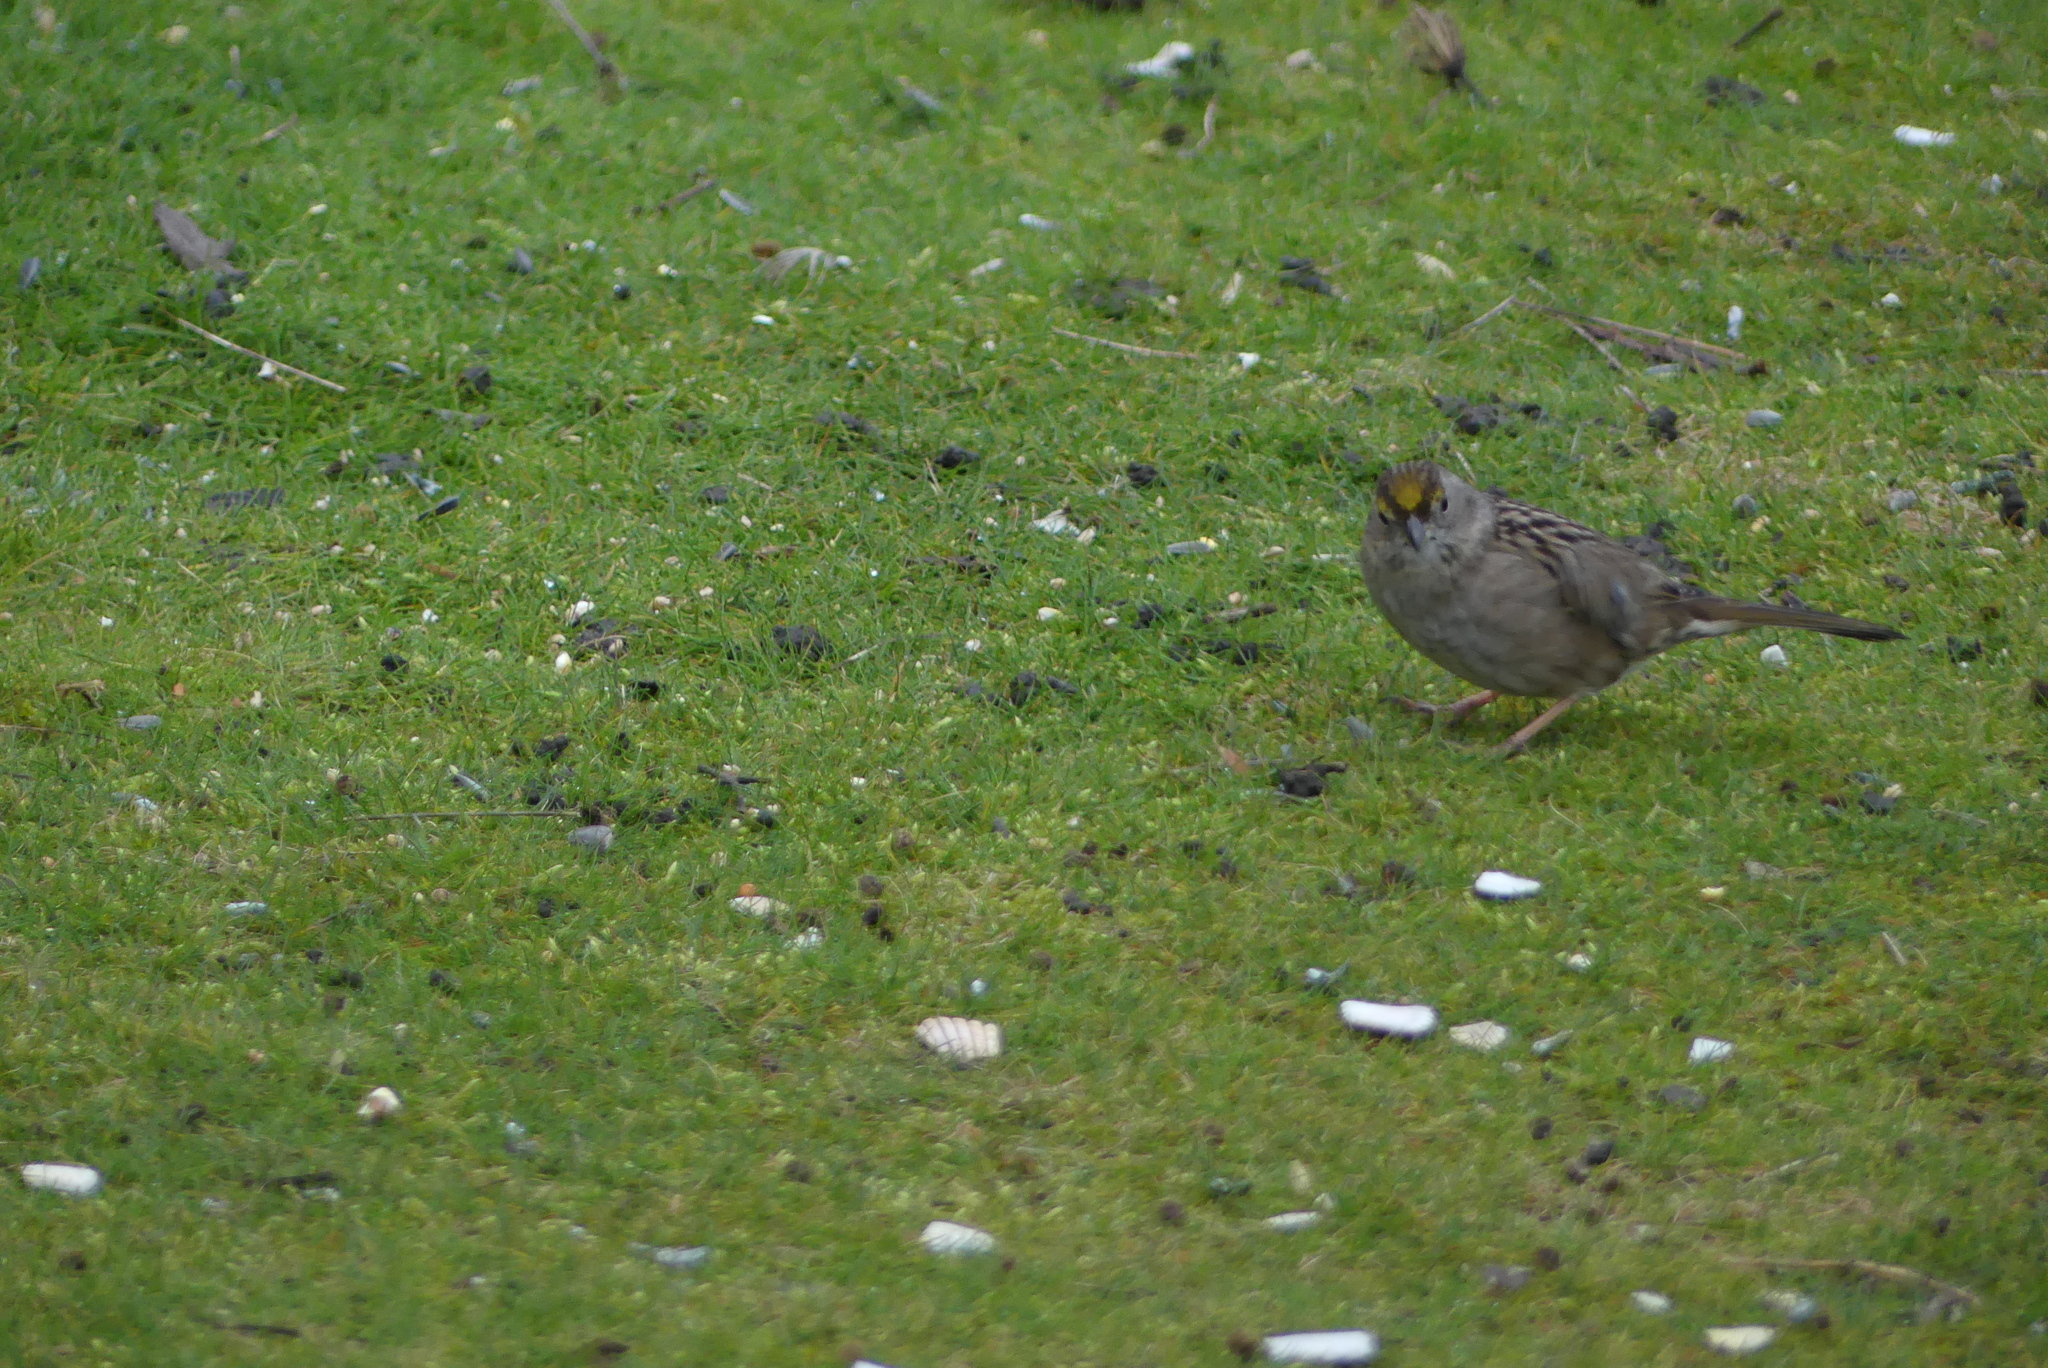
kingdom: Animalia
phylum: Chordata
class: Aves
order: Passeriformes
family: Passerellidae
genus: Zonotrichia
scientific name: Zonotrichia atricapilla
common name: Golden-crowned sparrow
